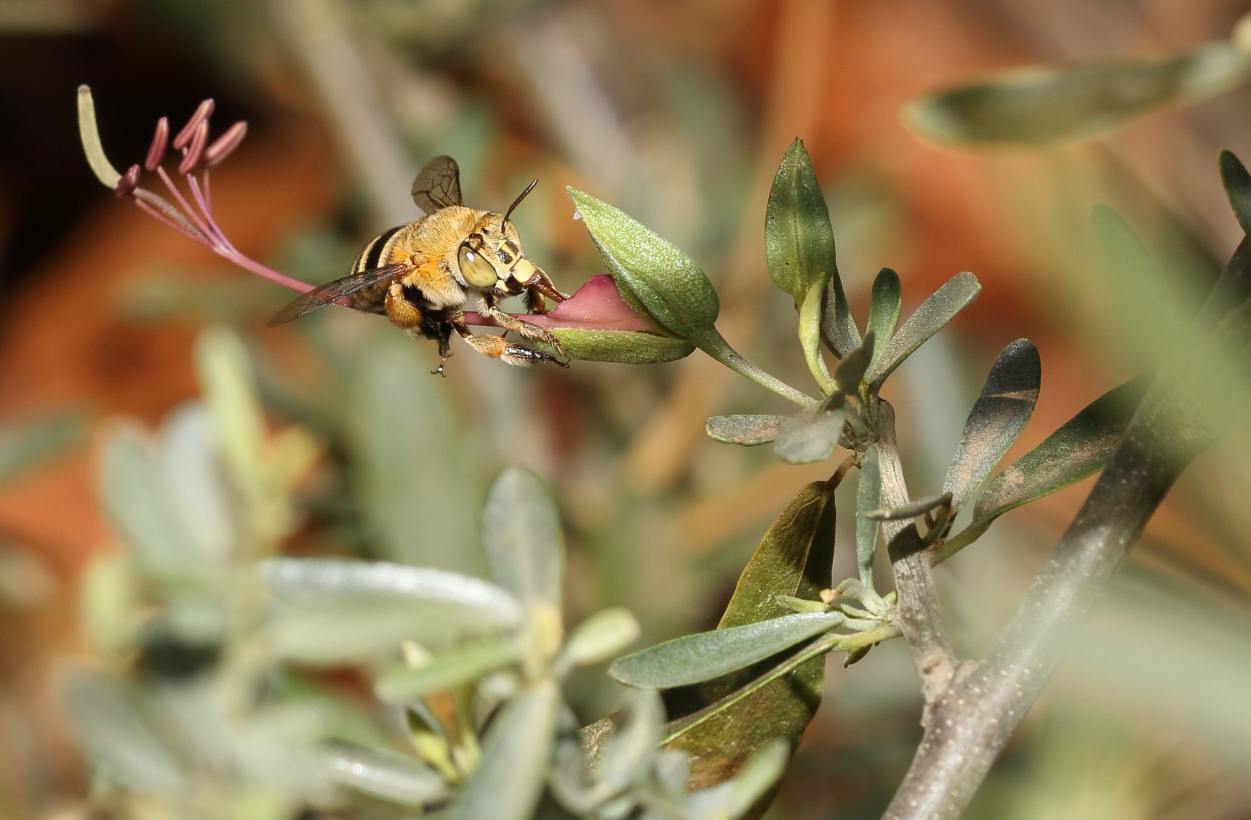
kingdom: Plantae
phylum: Tracheophyta
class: Magnoliopsida
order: Brassicales
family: Capparaceae
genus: Cadaba
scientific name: Cadaba termitaria
